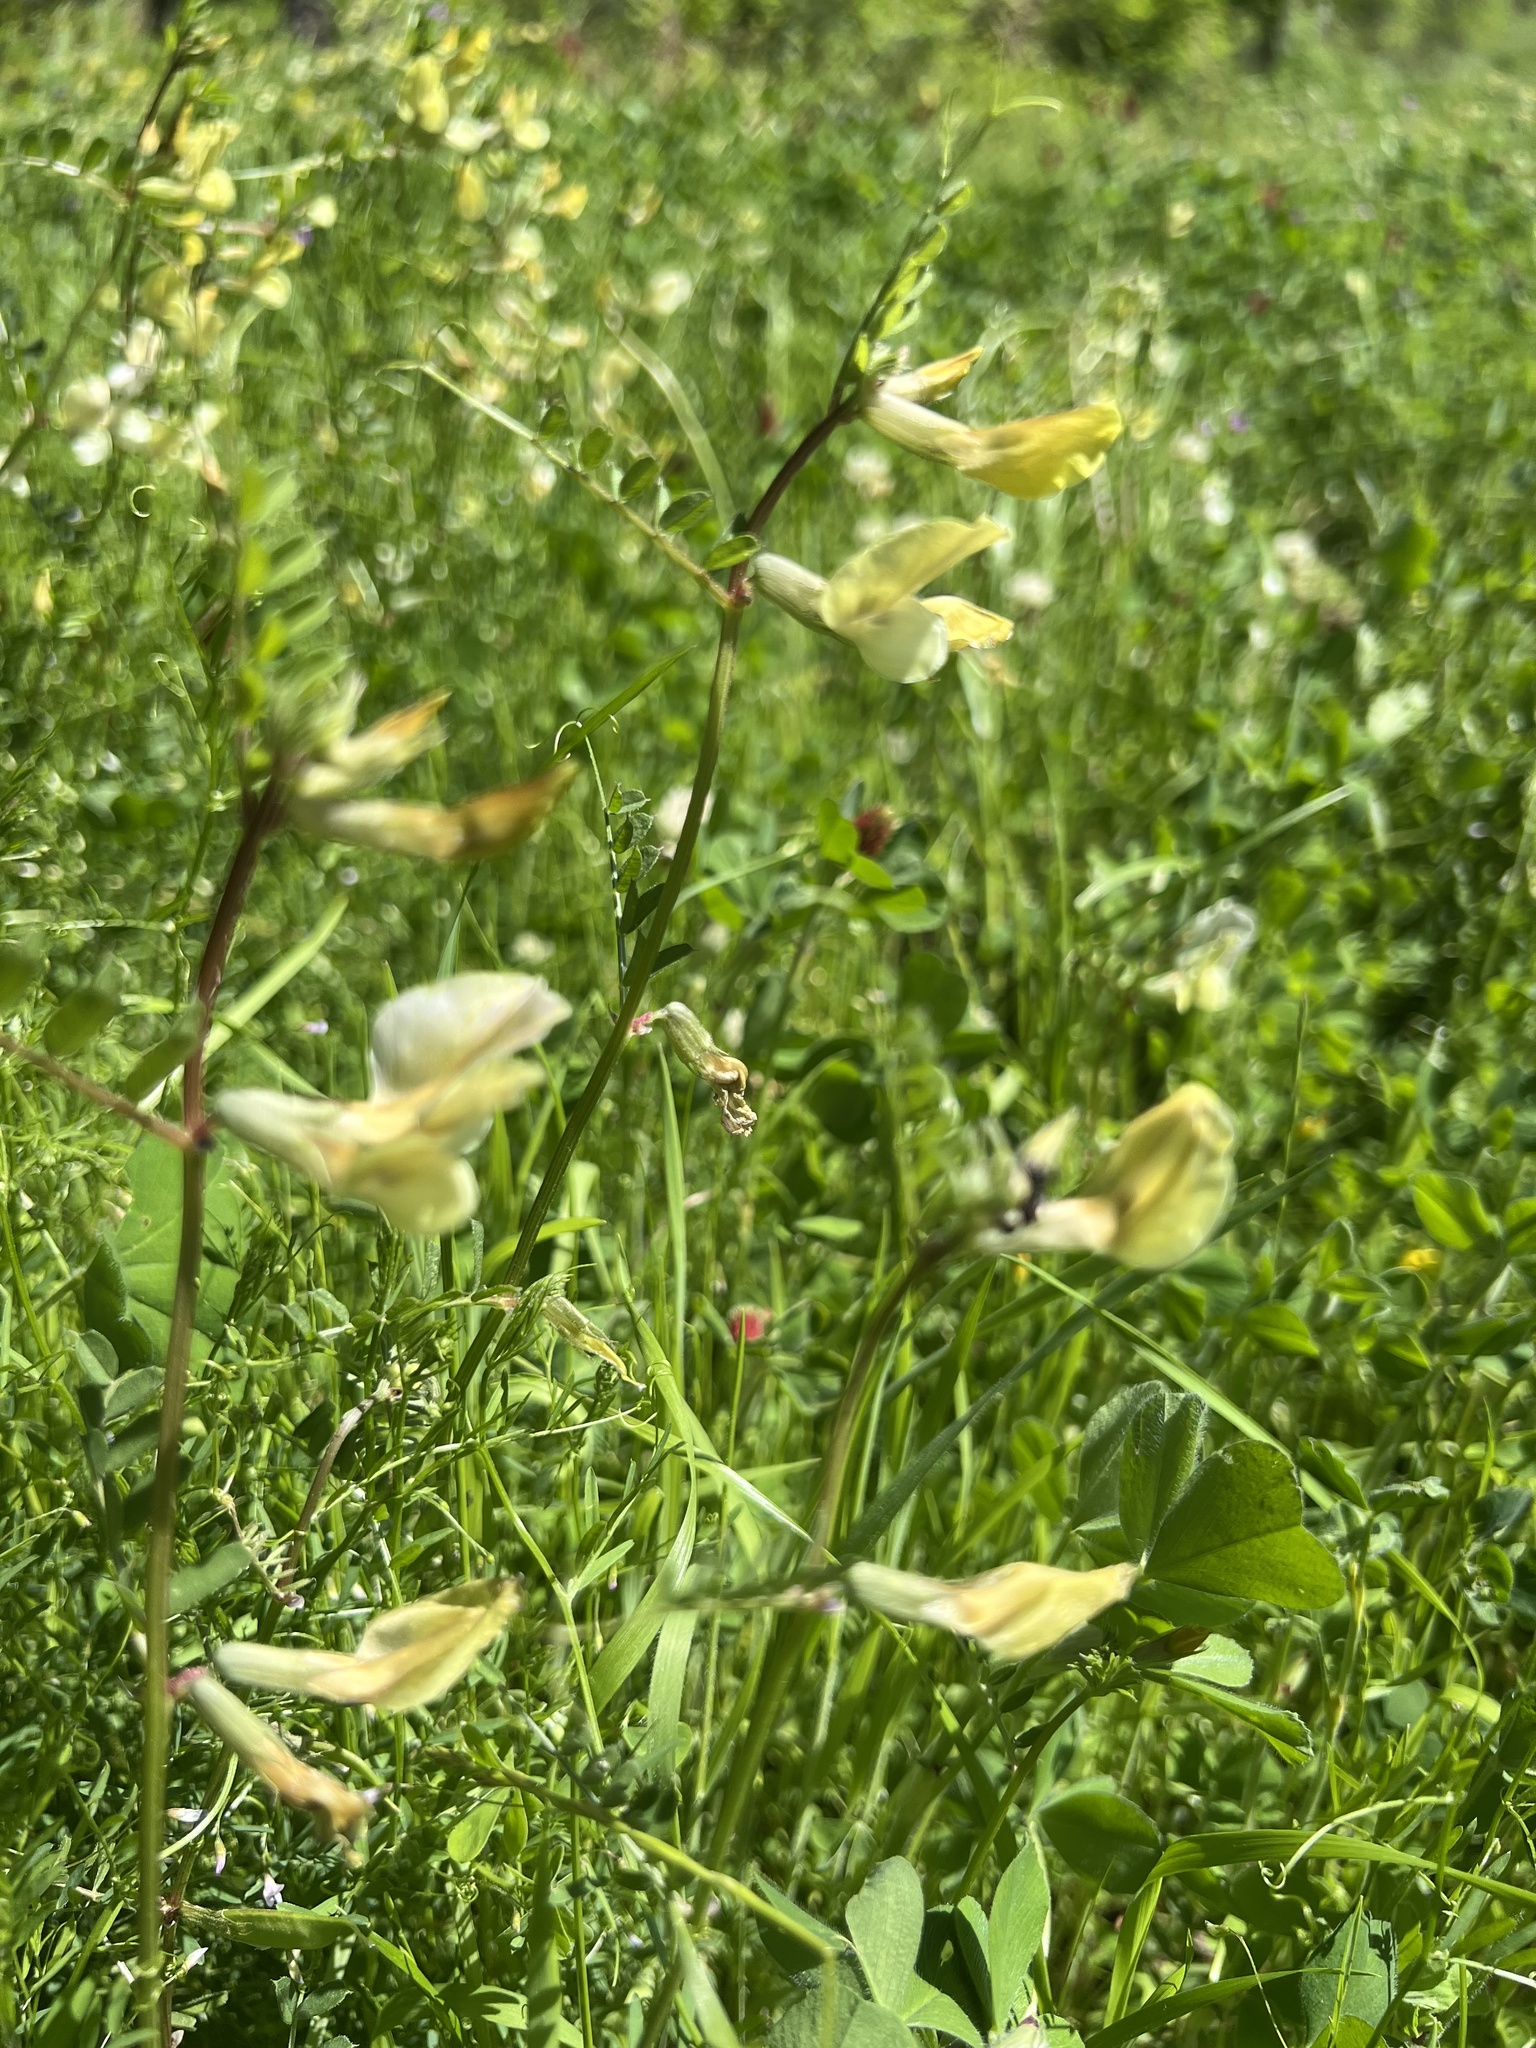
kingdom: Plantae
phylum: Tracheophyta
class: Magnoliopsida
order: Fabales
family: Fabaceae
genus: Vicia
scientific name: Vicia grandiflora
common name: Large yellow vetch
